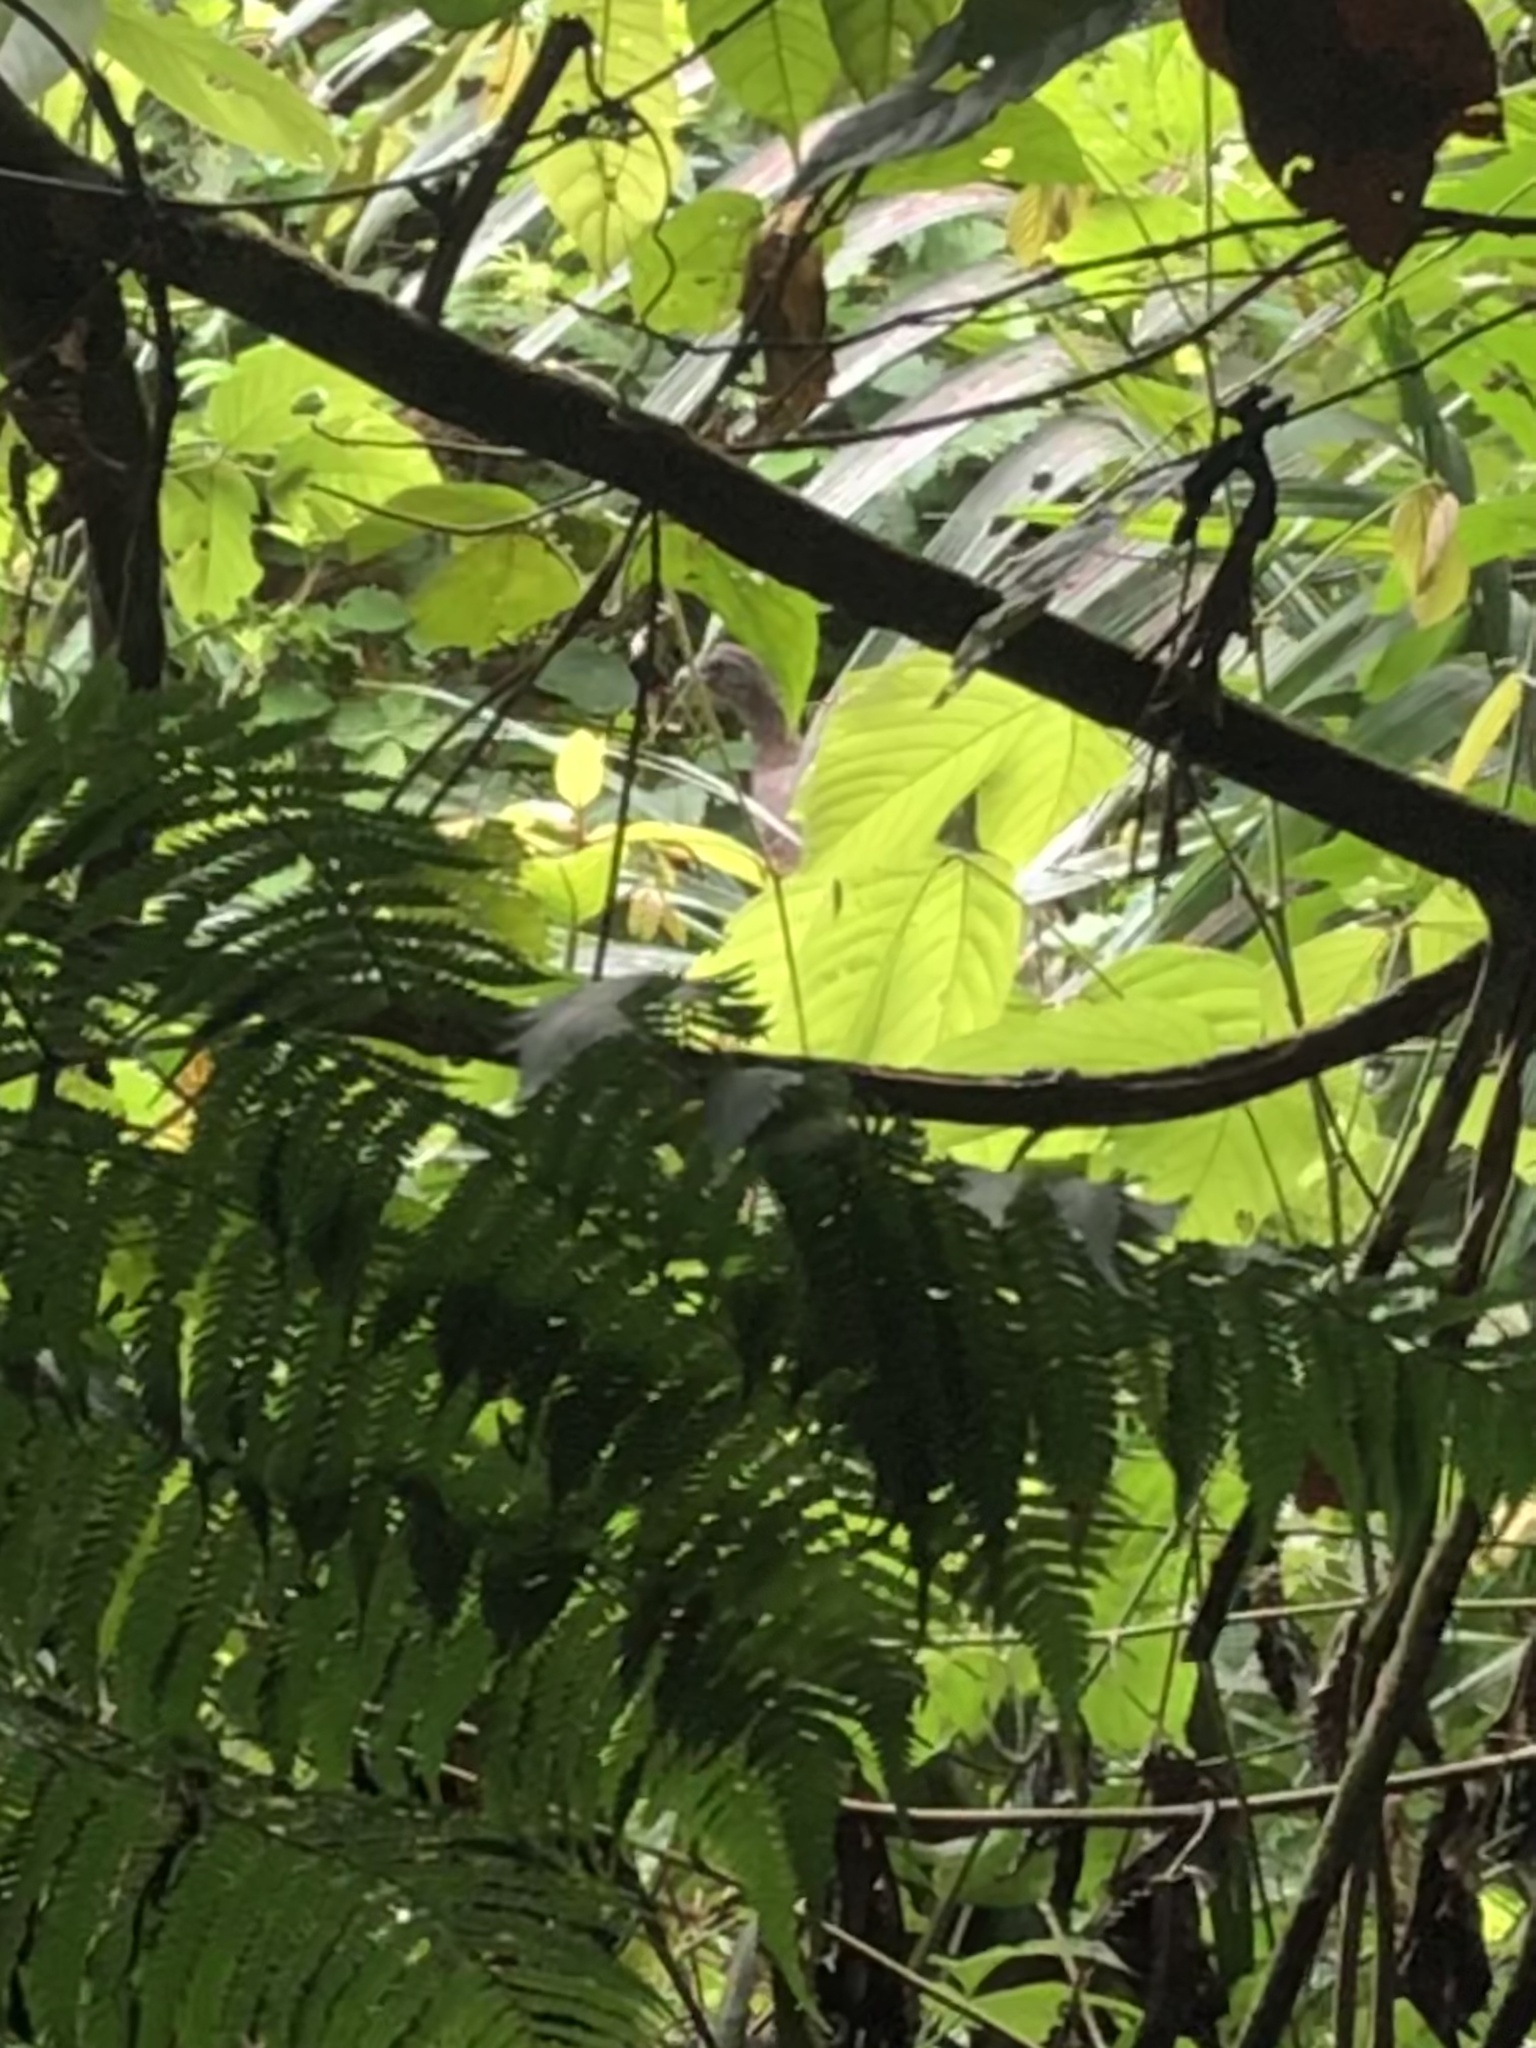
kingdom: Animalia
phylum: Chordata
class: Aves
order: Galliformes
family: Cracidae
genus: Ortalis
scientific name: Ortalis guttata
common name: Speckled chachalaca
